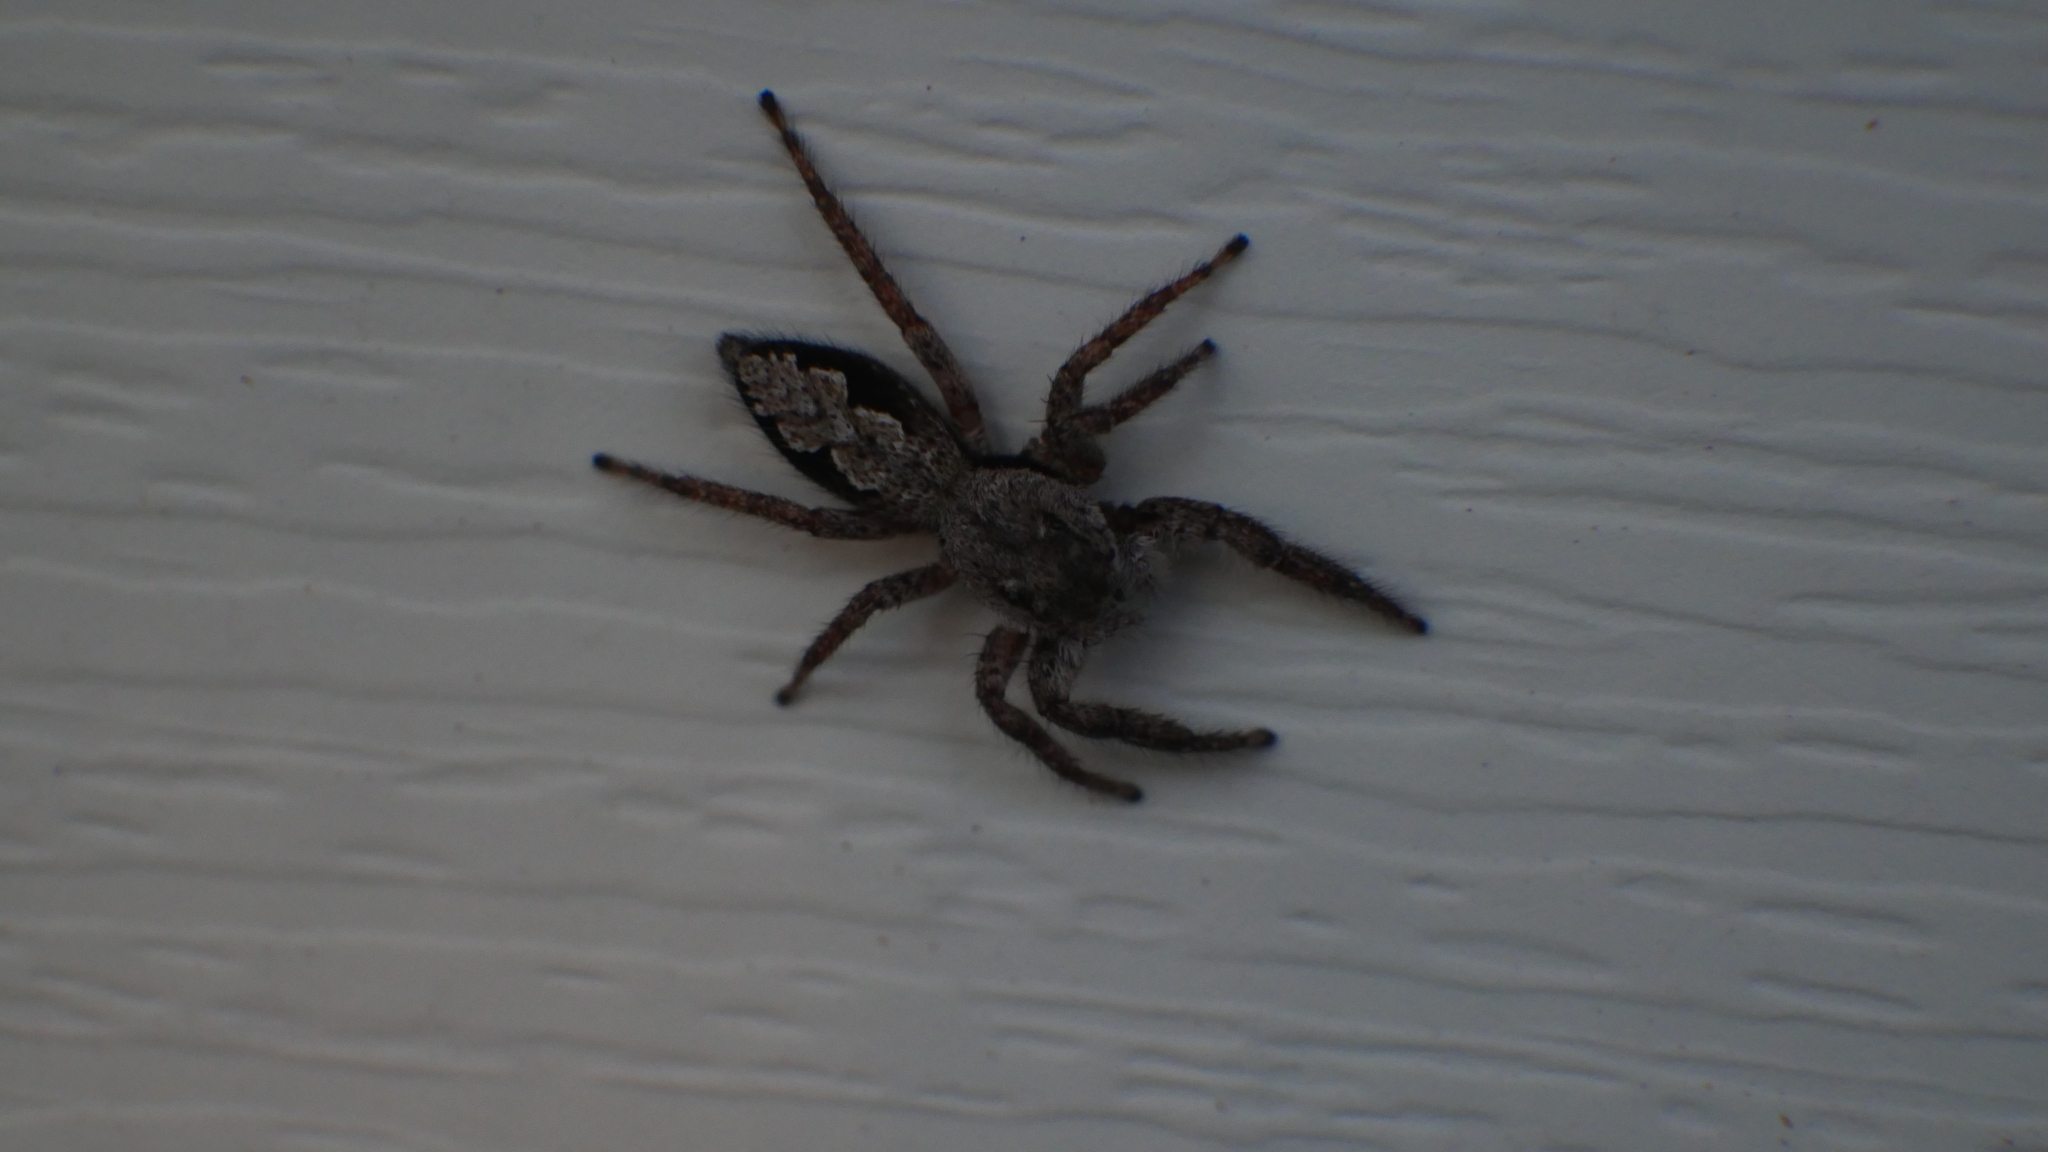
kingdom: Animalia
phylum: Arthropoda
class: Arachnida
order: Araneae
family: Salticidae
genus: Platycryptus
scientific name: Platycryptus undatus
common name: Tan jumping spider
